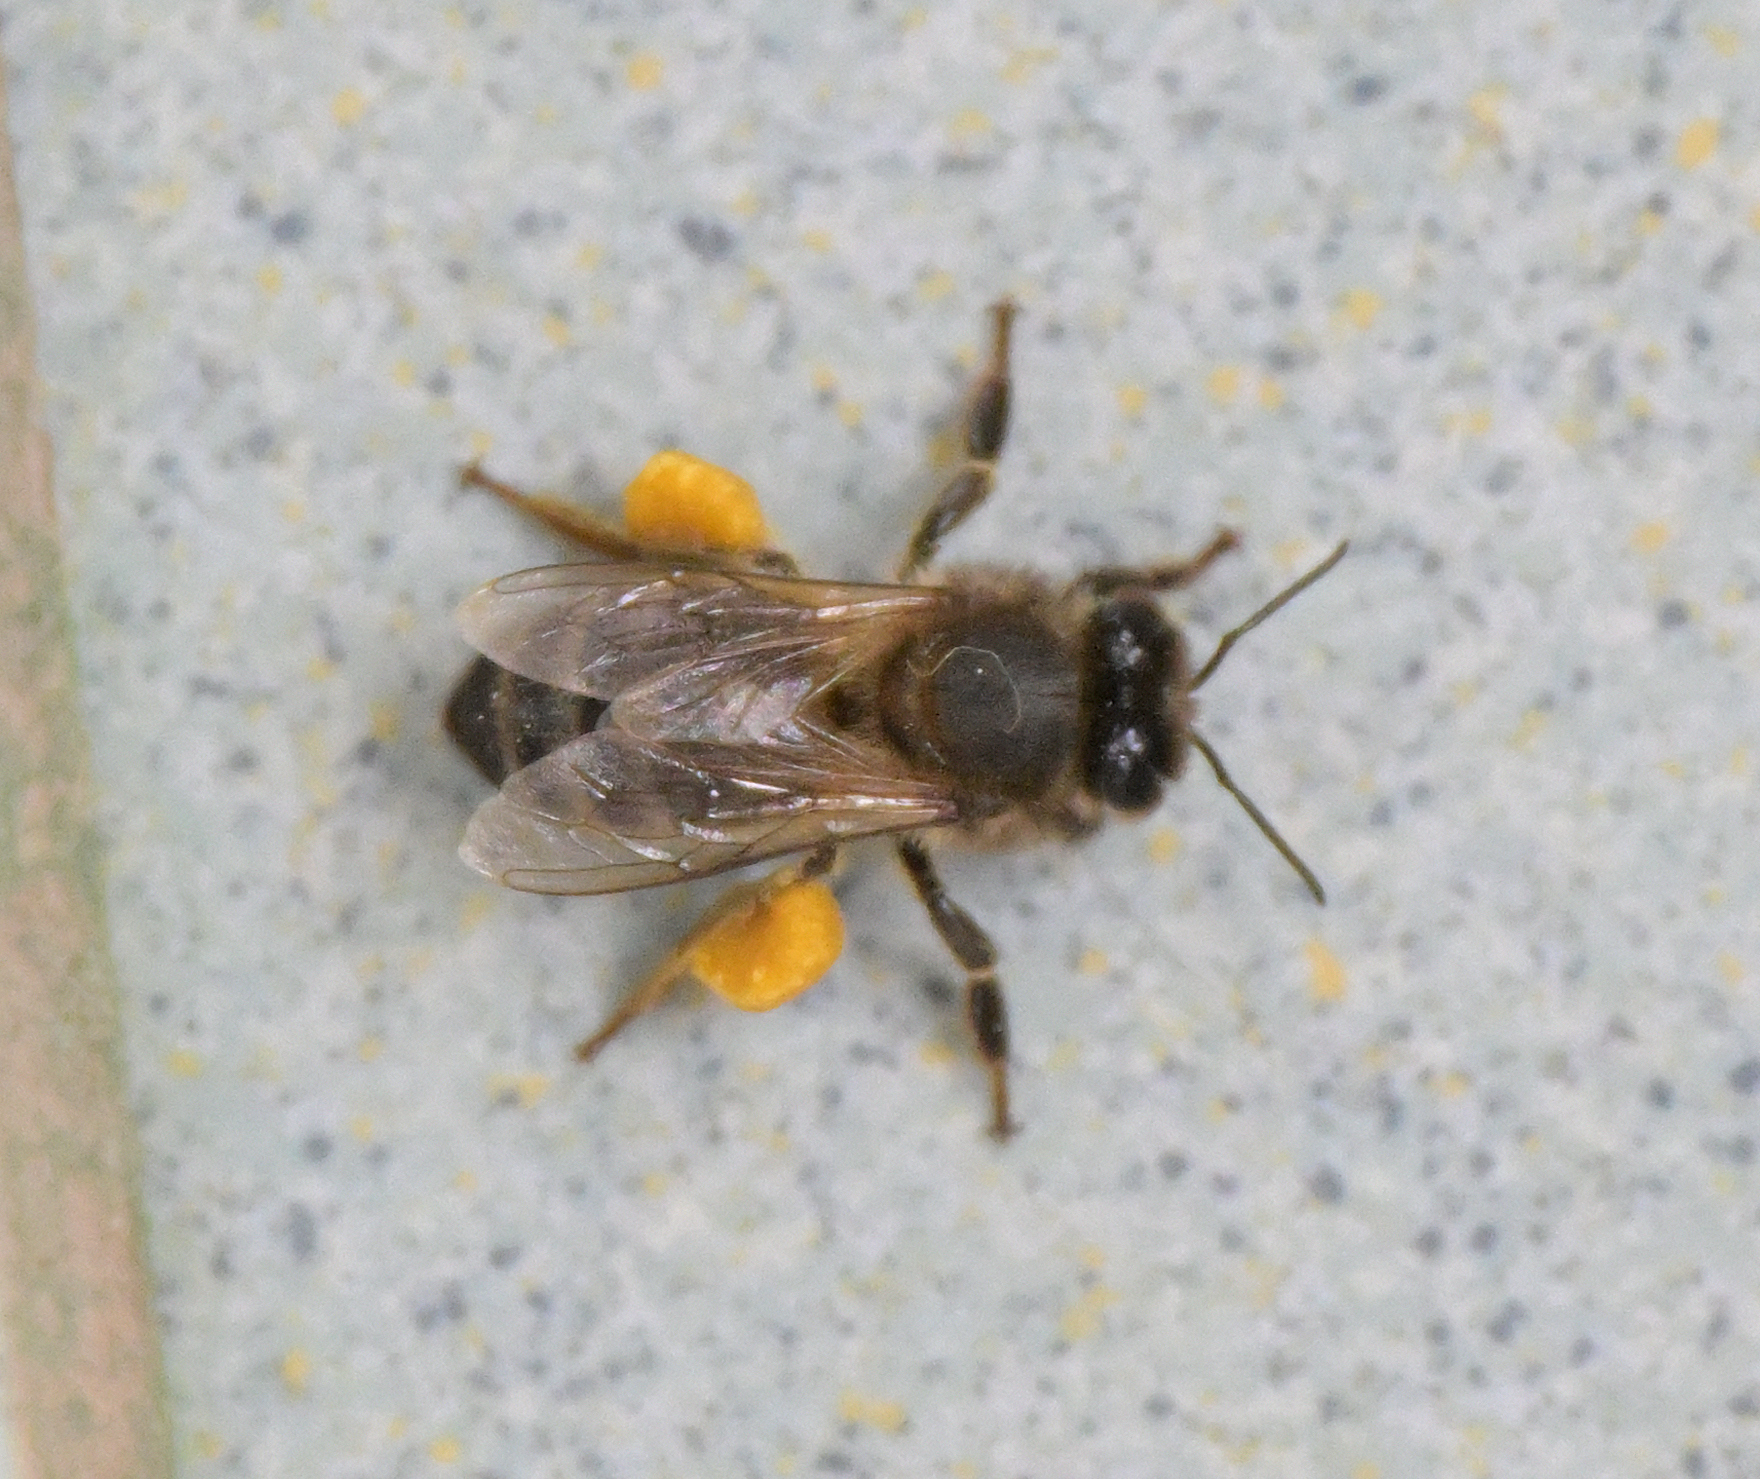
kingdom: Animalia
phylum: Arthropoda
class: Insecta
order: Hymenoptera
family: Apidae
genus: Apis
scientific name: Apis mellifera
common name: Honey bee
